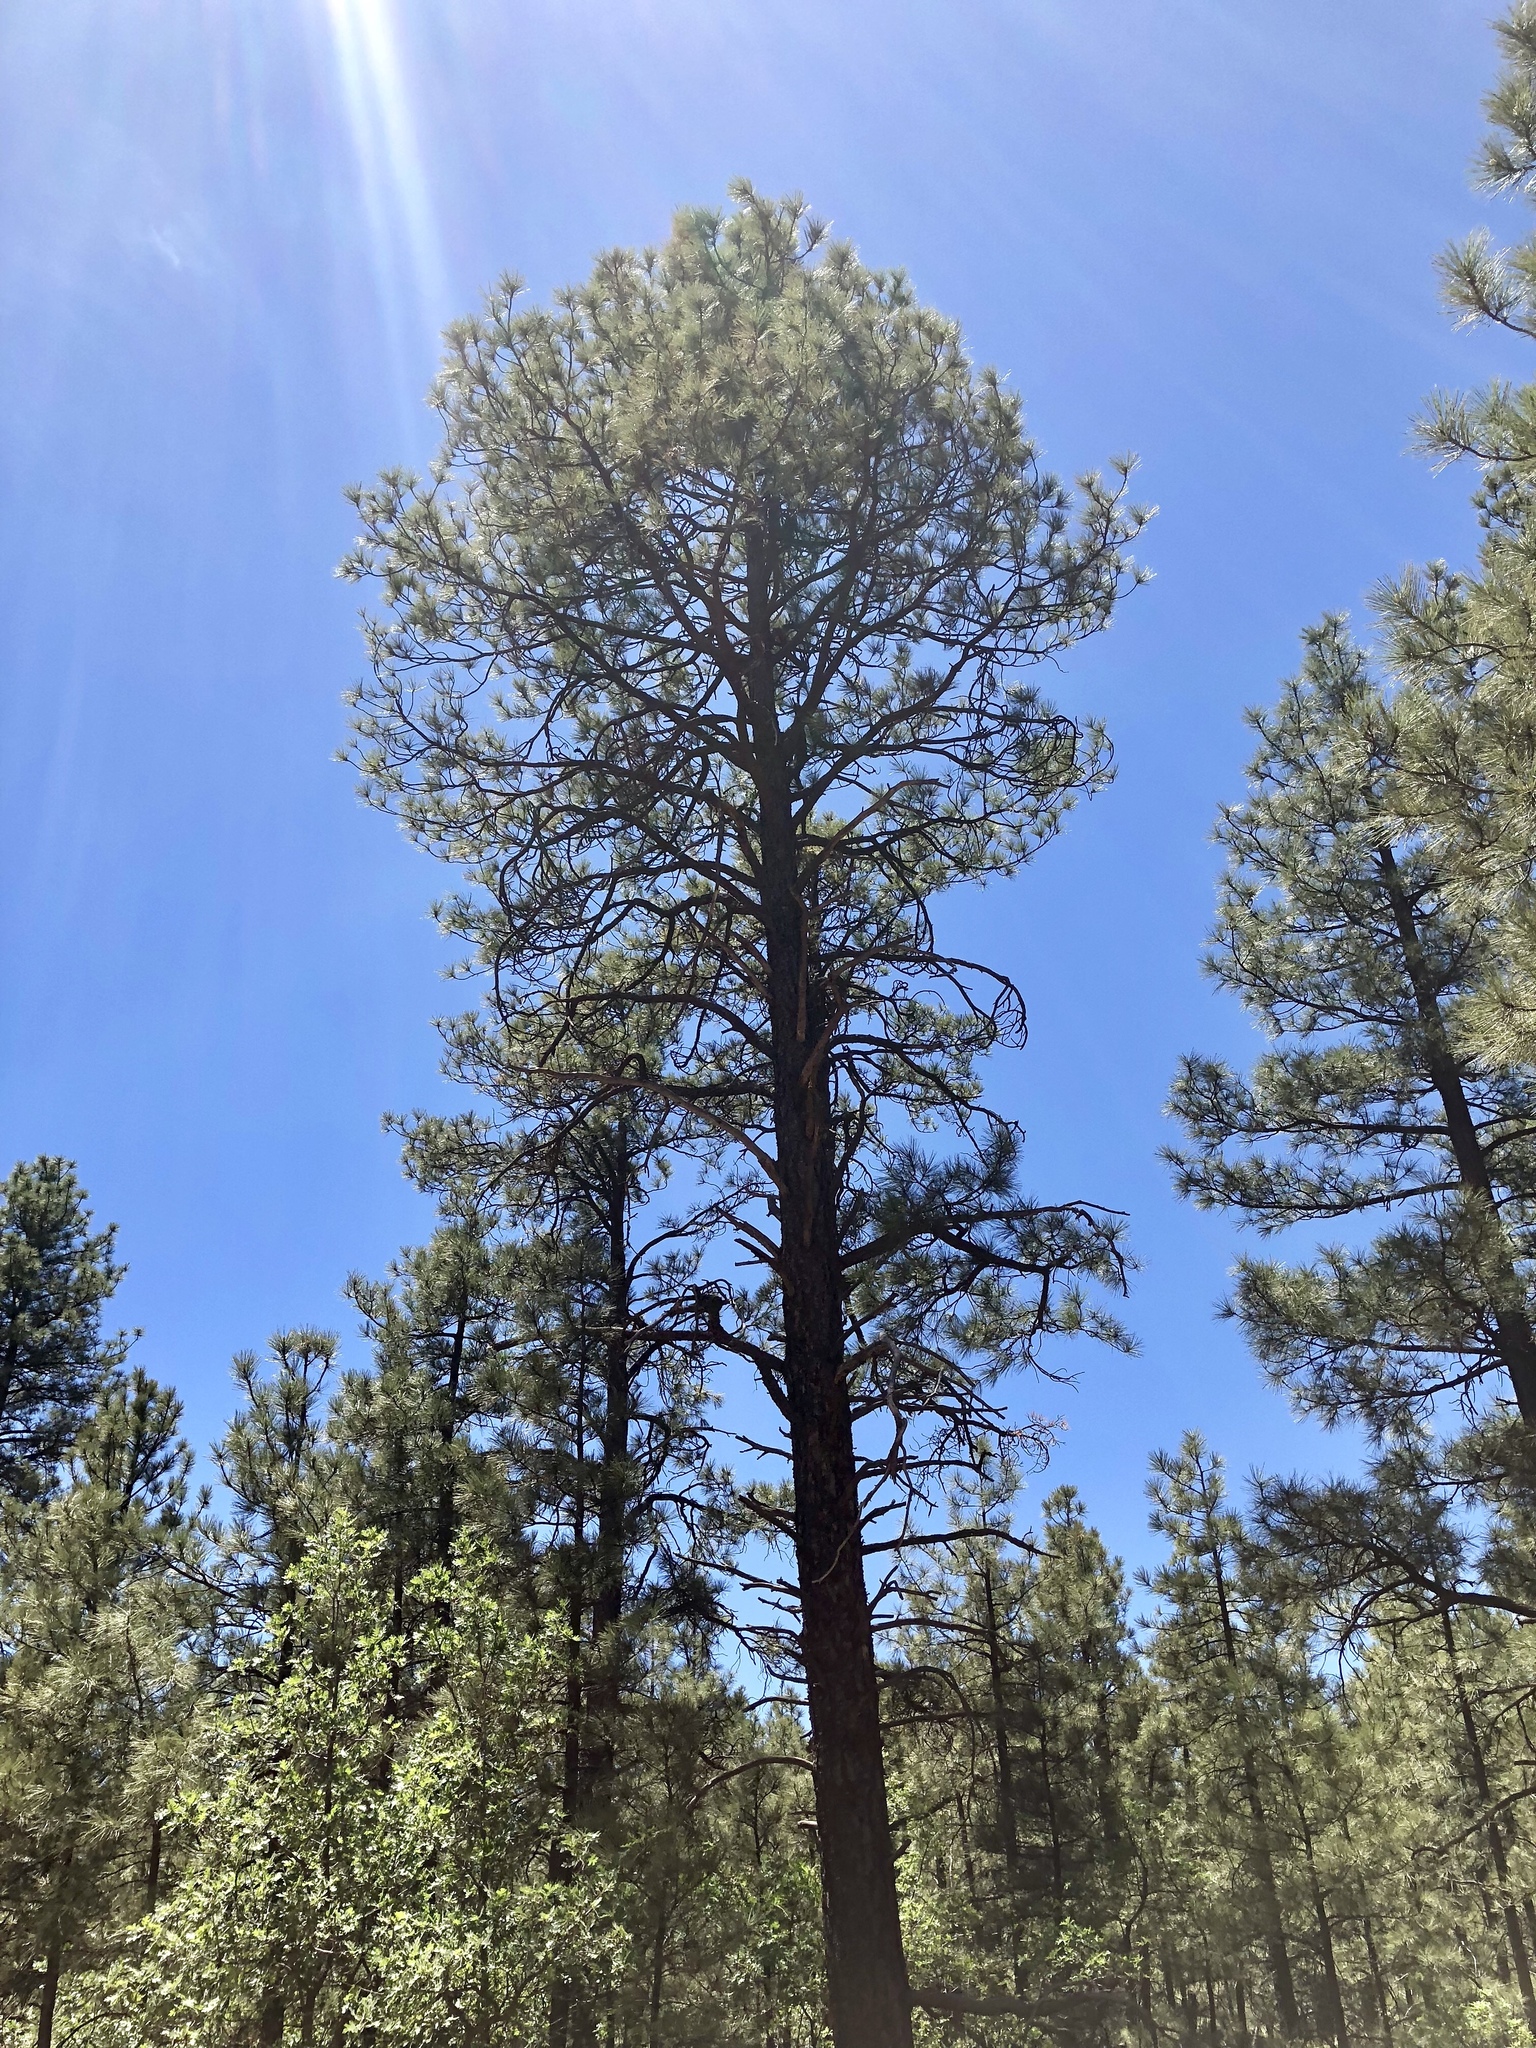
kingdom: Plantae
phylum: Tracheophyta
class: Pinopsida
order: Pinales
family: Pinaceae
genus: Pinus
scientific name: Pinus ponderosa
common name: Western yellow-pine
